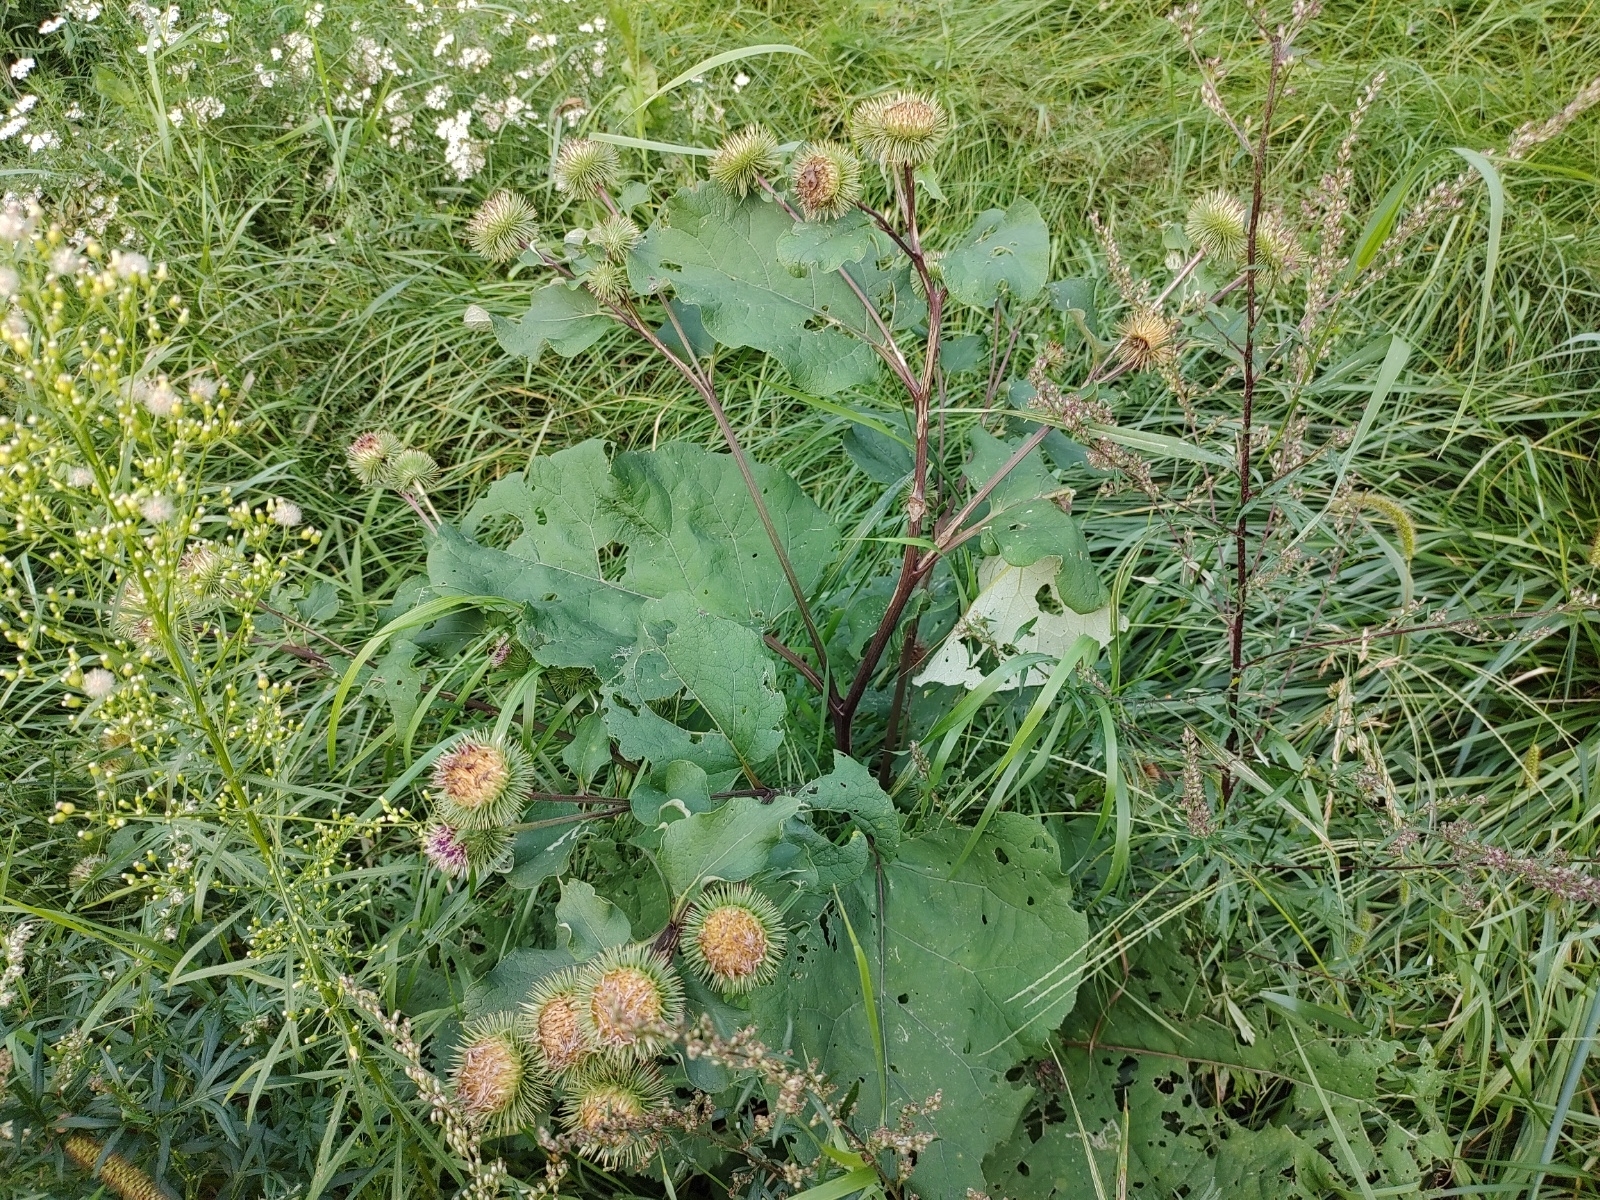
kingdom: Plantae
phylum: Tracheophyta
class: Magnoliopsida
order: Asterales
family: Asteraceae
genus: Arctium
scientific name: Arctium lappa
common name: Greater burdock
